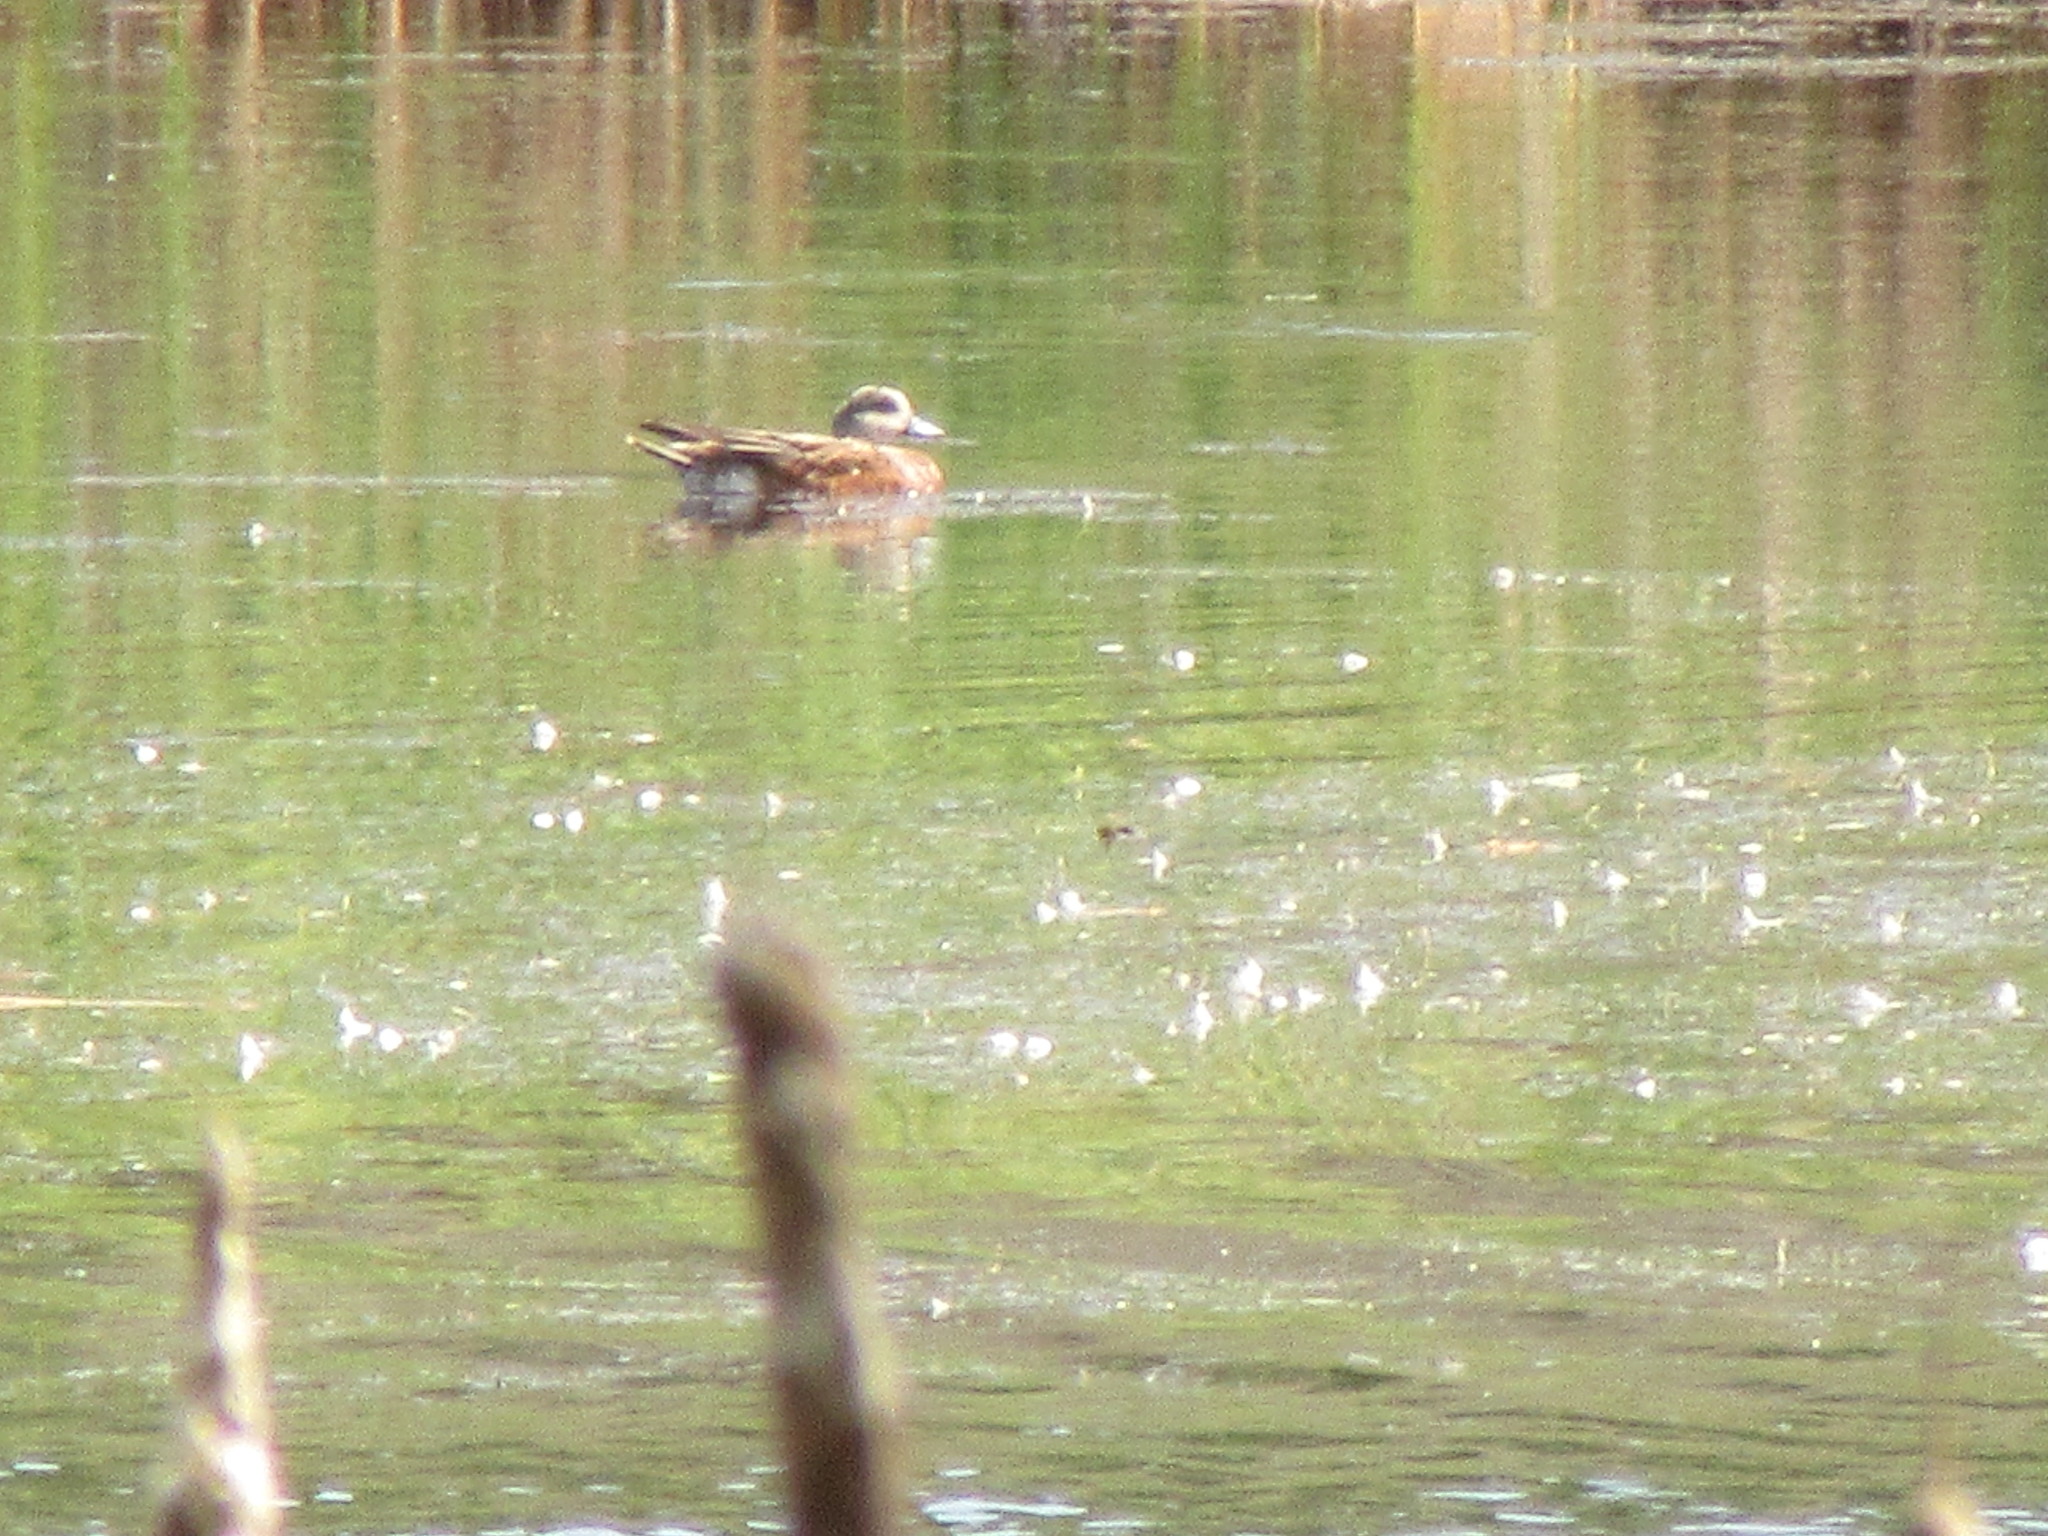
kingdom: Animalia
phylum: Chordata
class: Aves
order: Anseriformes
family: Anatidae
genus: Mareca
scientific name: Mareca americana
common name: American wigeon
